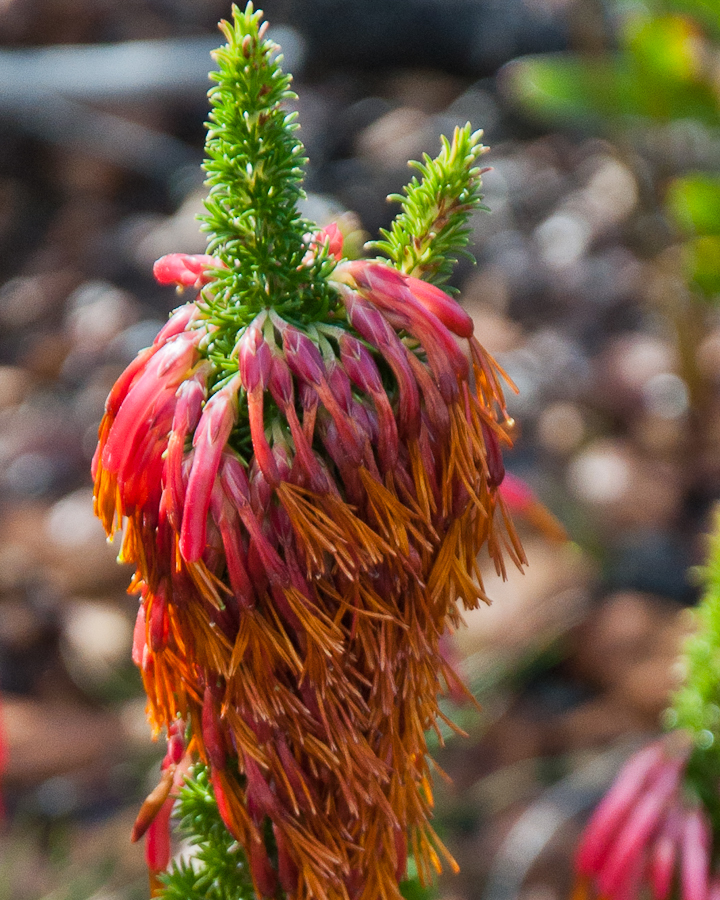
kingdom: Plantae
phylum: Tracheophyta
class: Magnoliopsida
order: Ericales
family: Ericaceae
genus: Erica
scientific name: Erica coccinea
